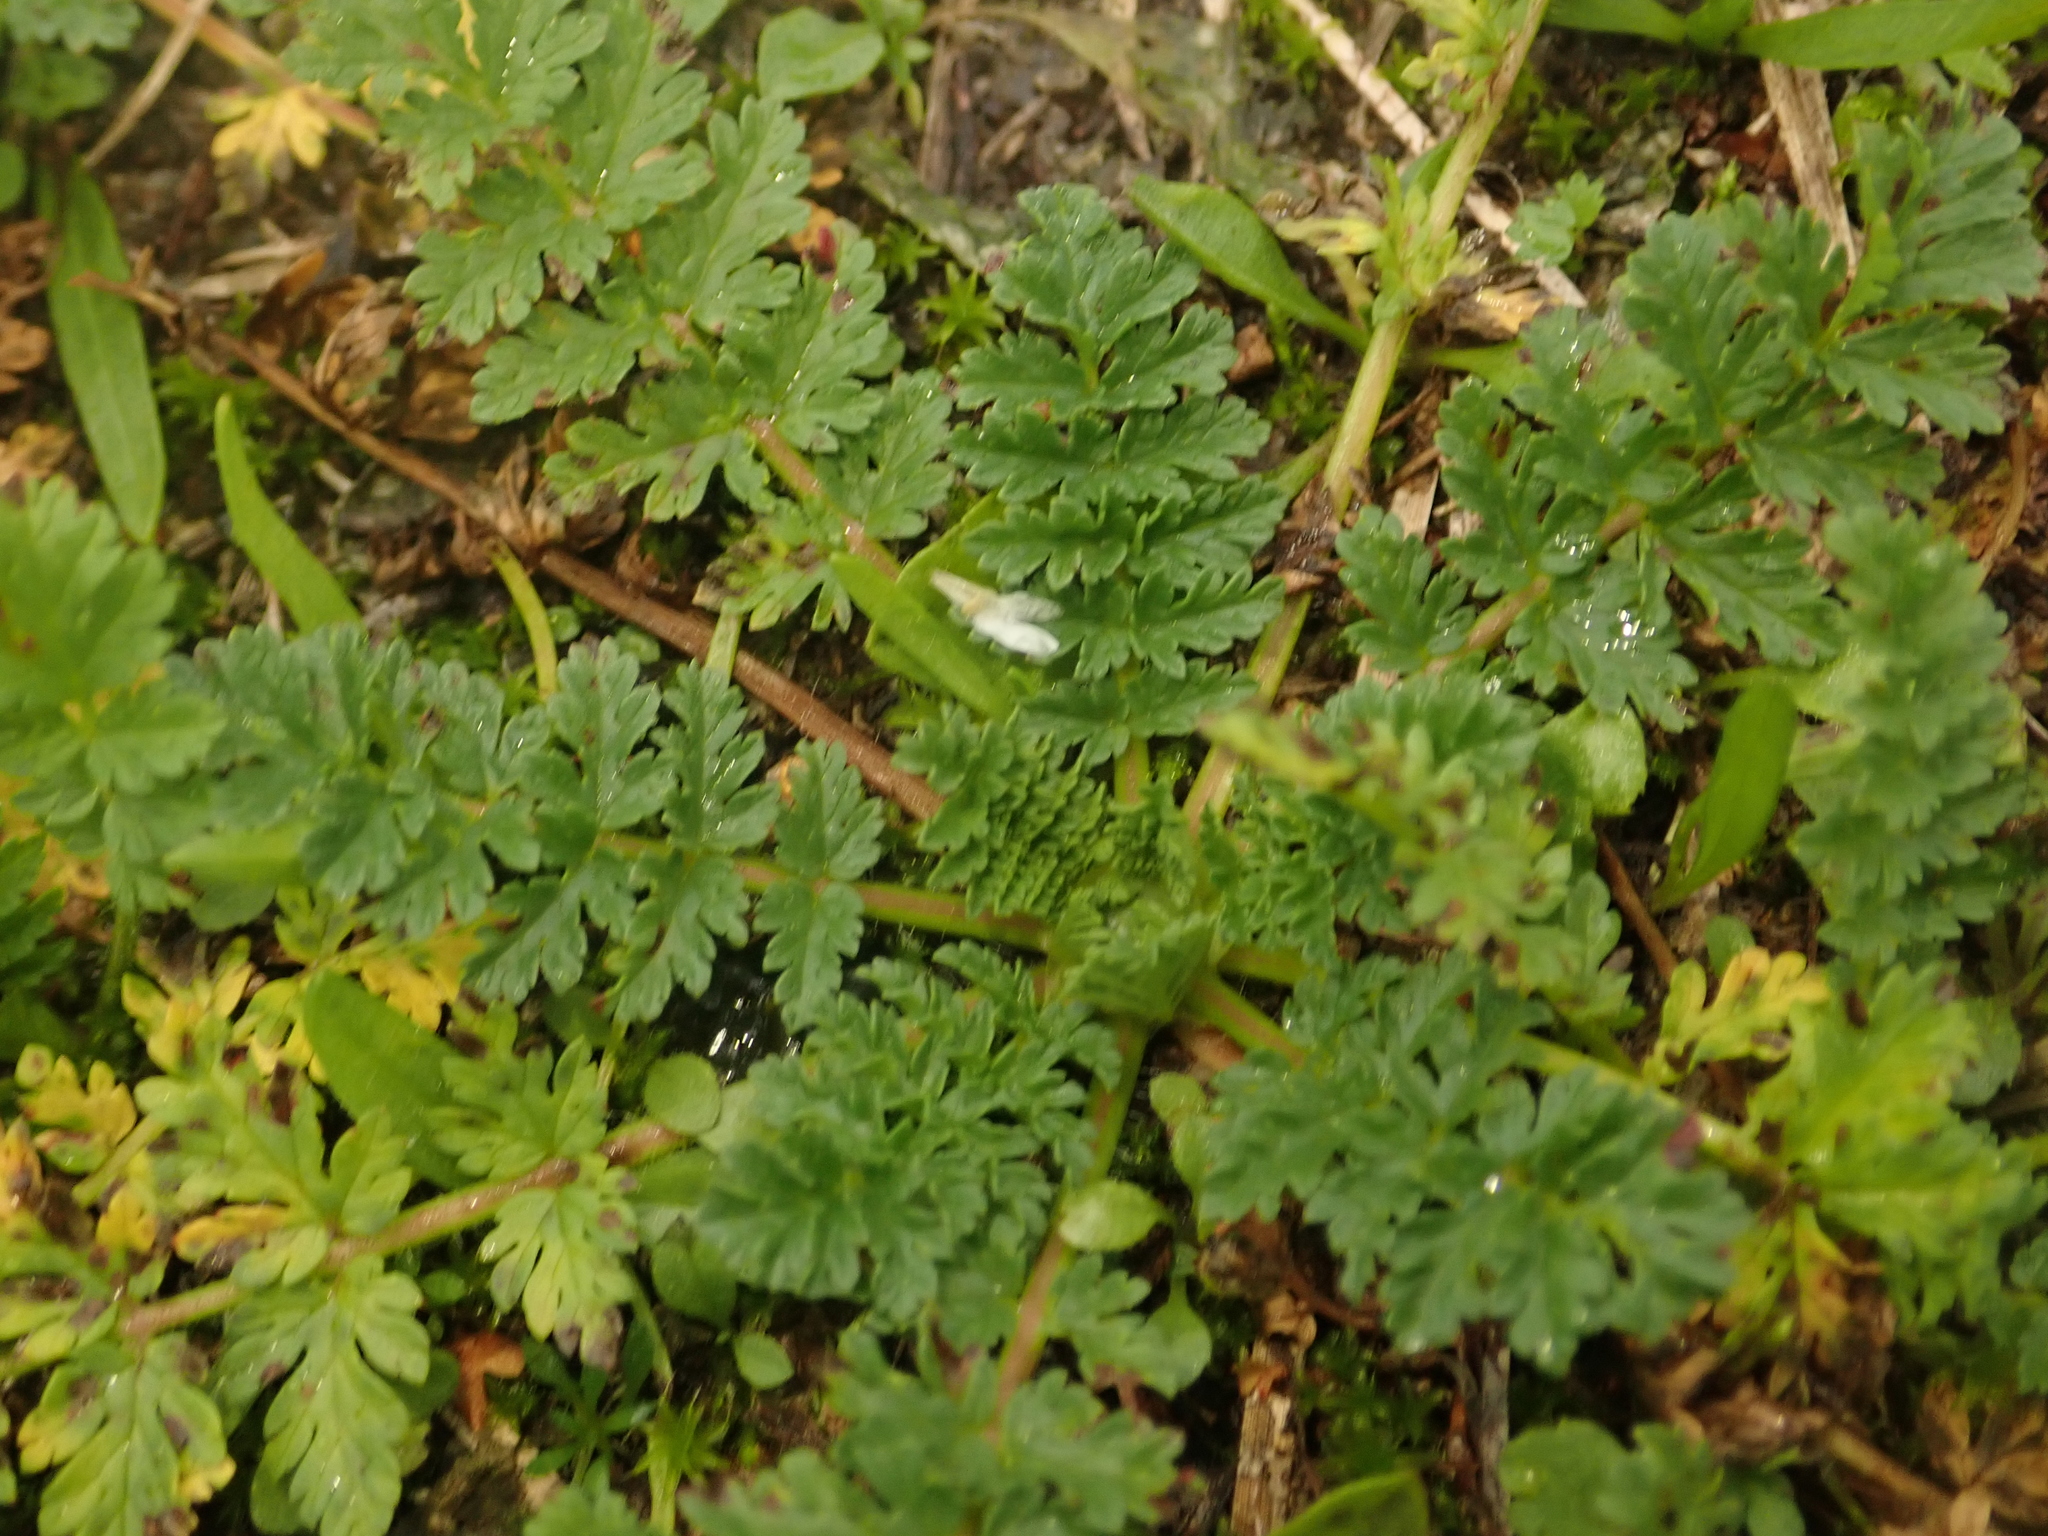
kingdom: Plantae
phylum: Tracheophyta
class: Magnoliopsida
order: Geraniales
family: Geraniaceae
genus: Erodium
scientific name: Erodium cicutarium
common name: Common stork's-bill
